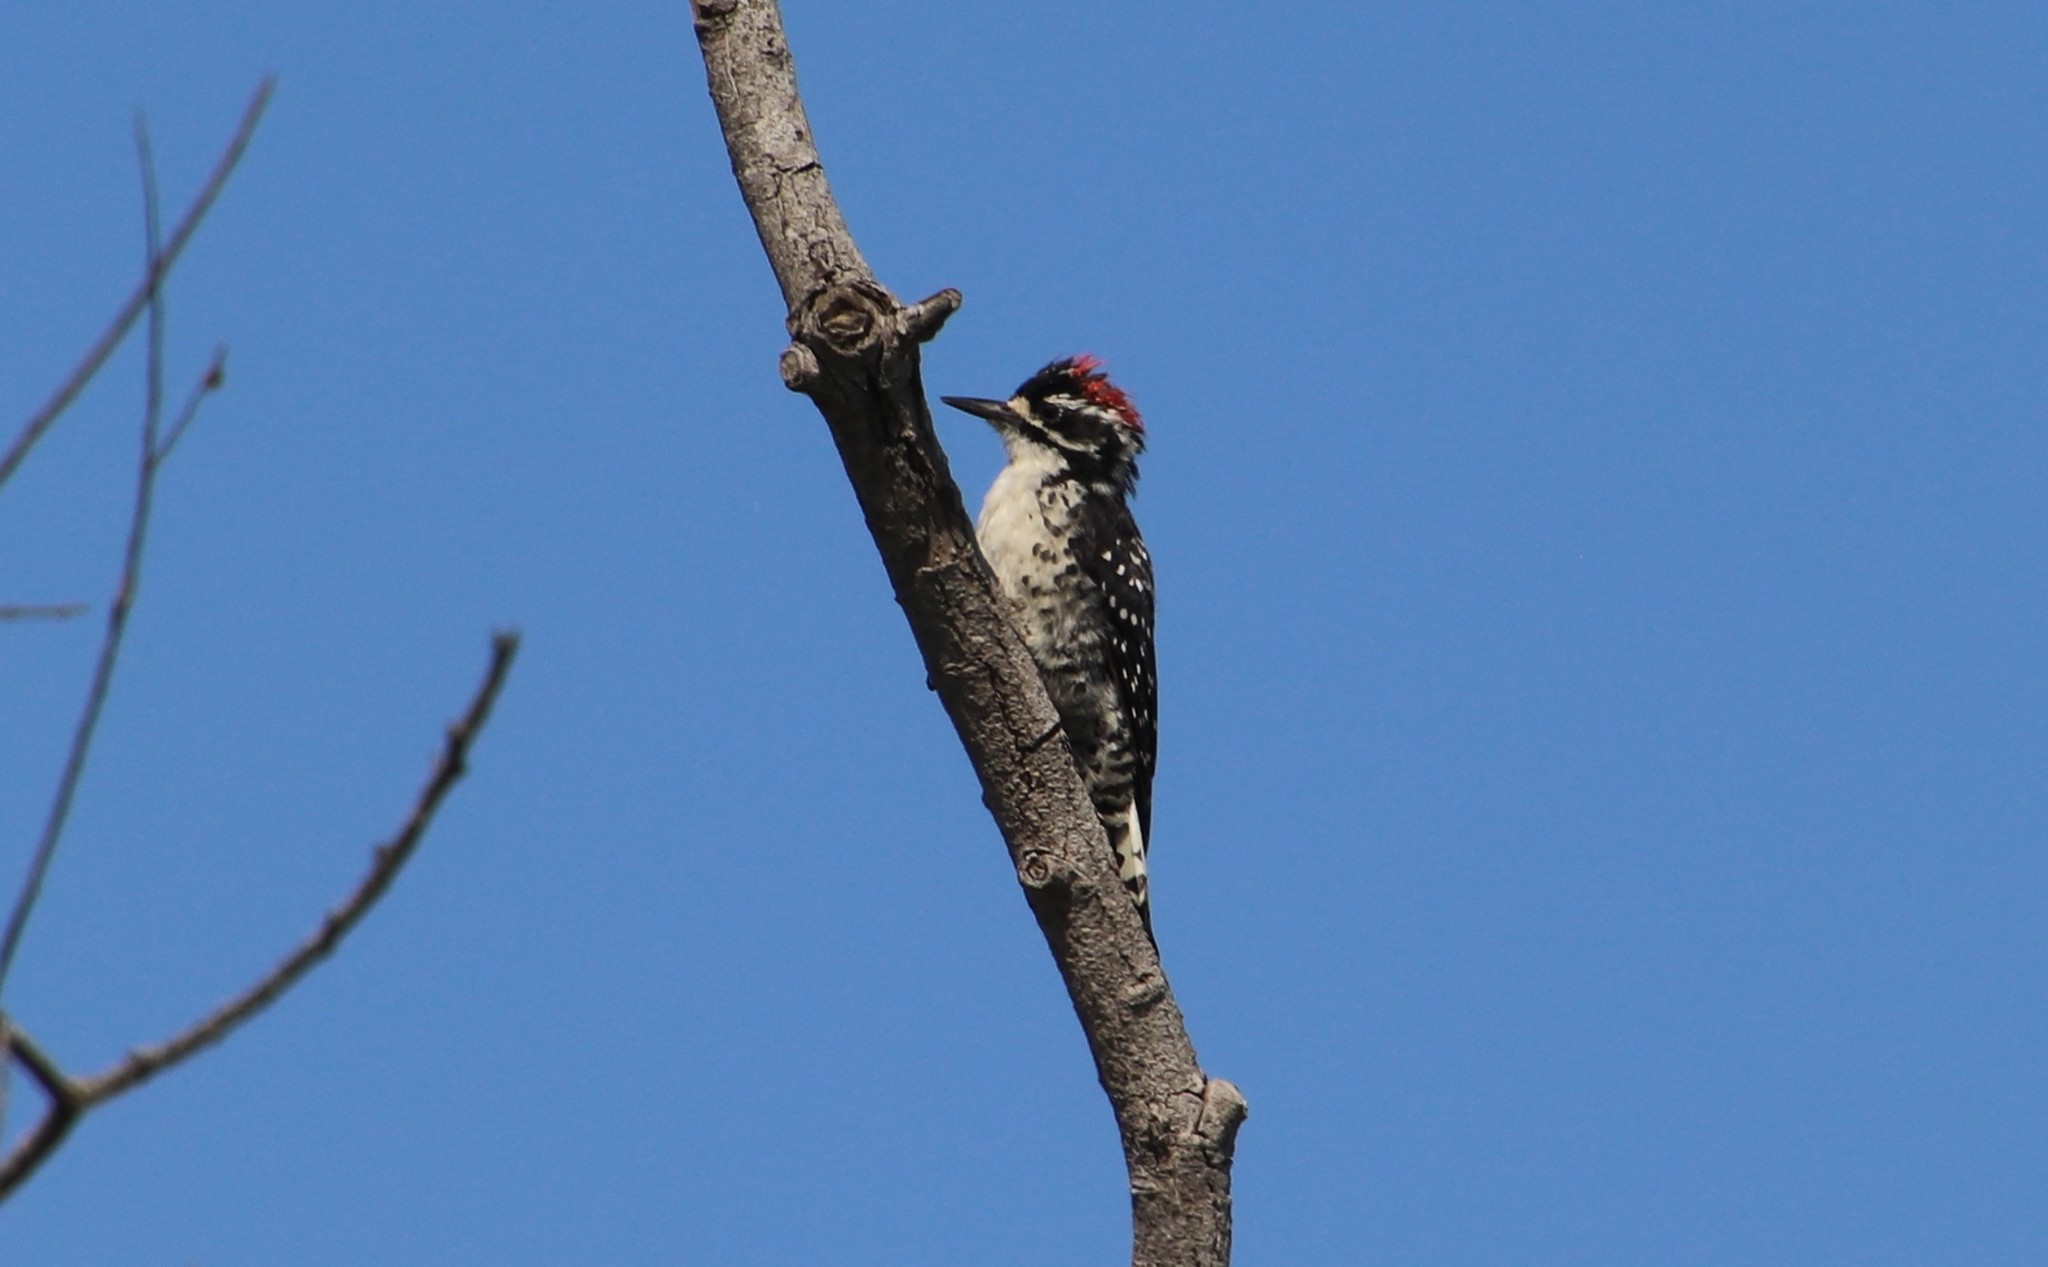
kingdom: Animalia
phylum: Chordata
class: Aves
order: Piciformes
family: Picidae
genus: Dryobates
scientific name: Dryobates nuttallii
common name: Nuttall's woodpecker
